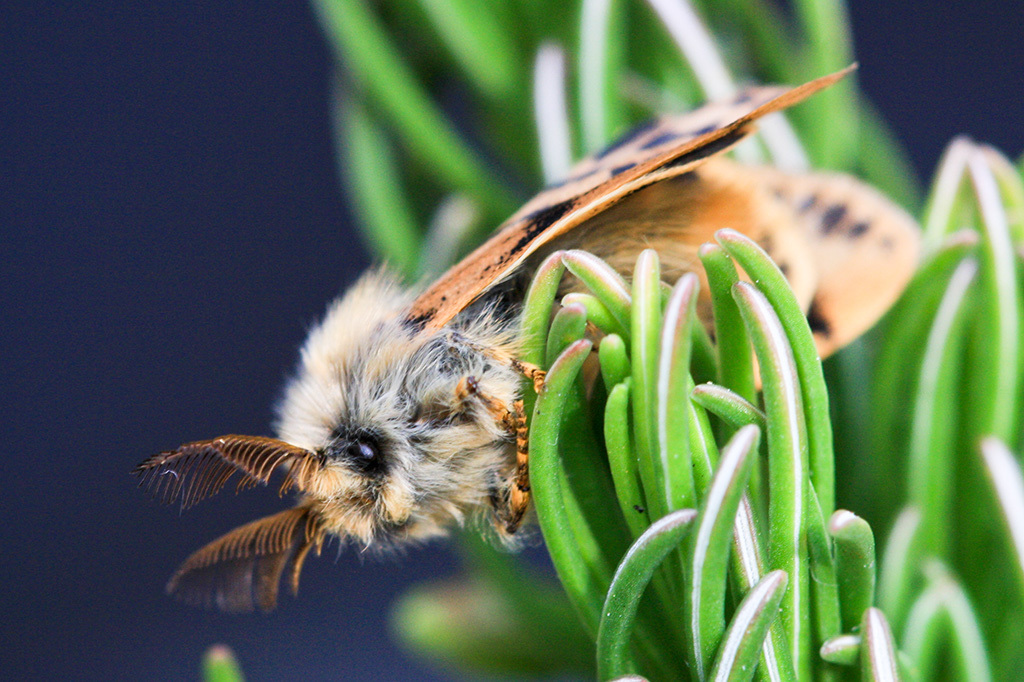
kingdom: Animalia
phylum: Arthropoda
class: Insecta
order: Lepidoptera
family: Erebidae
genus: Orgyia
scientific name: Orgyia tricolor
